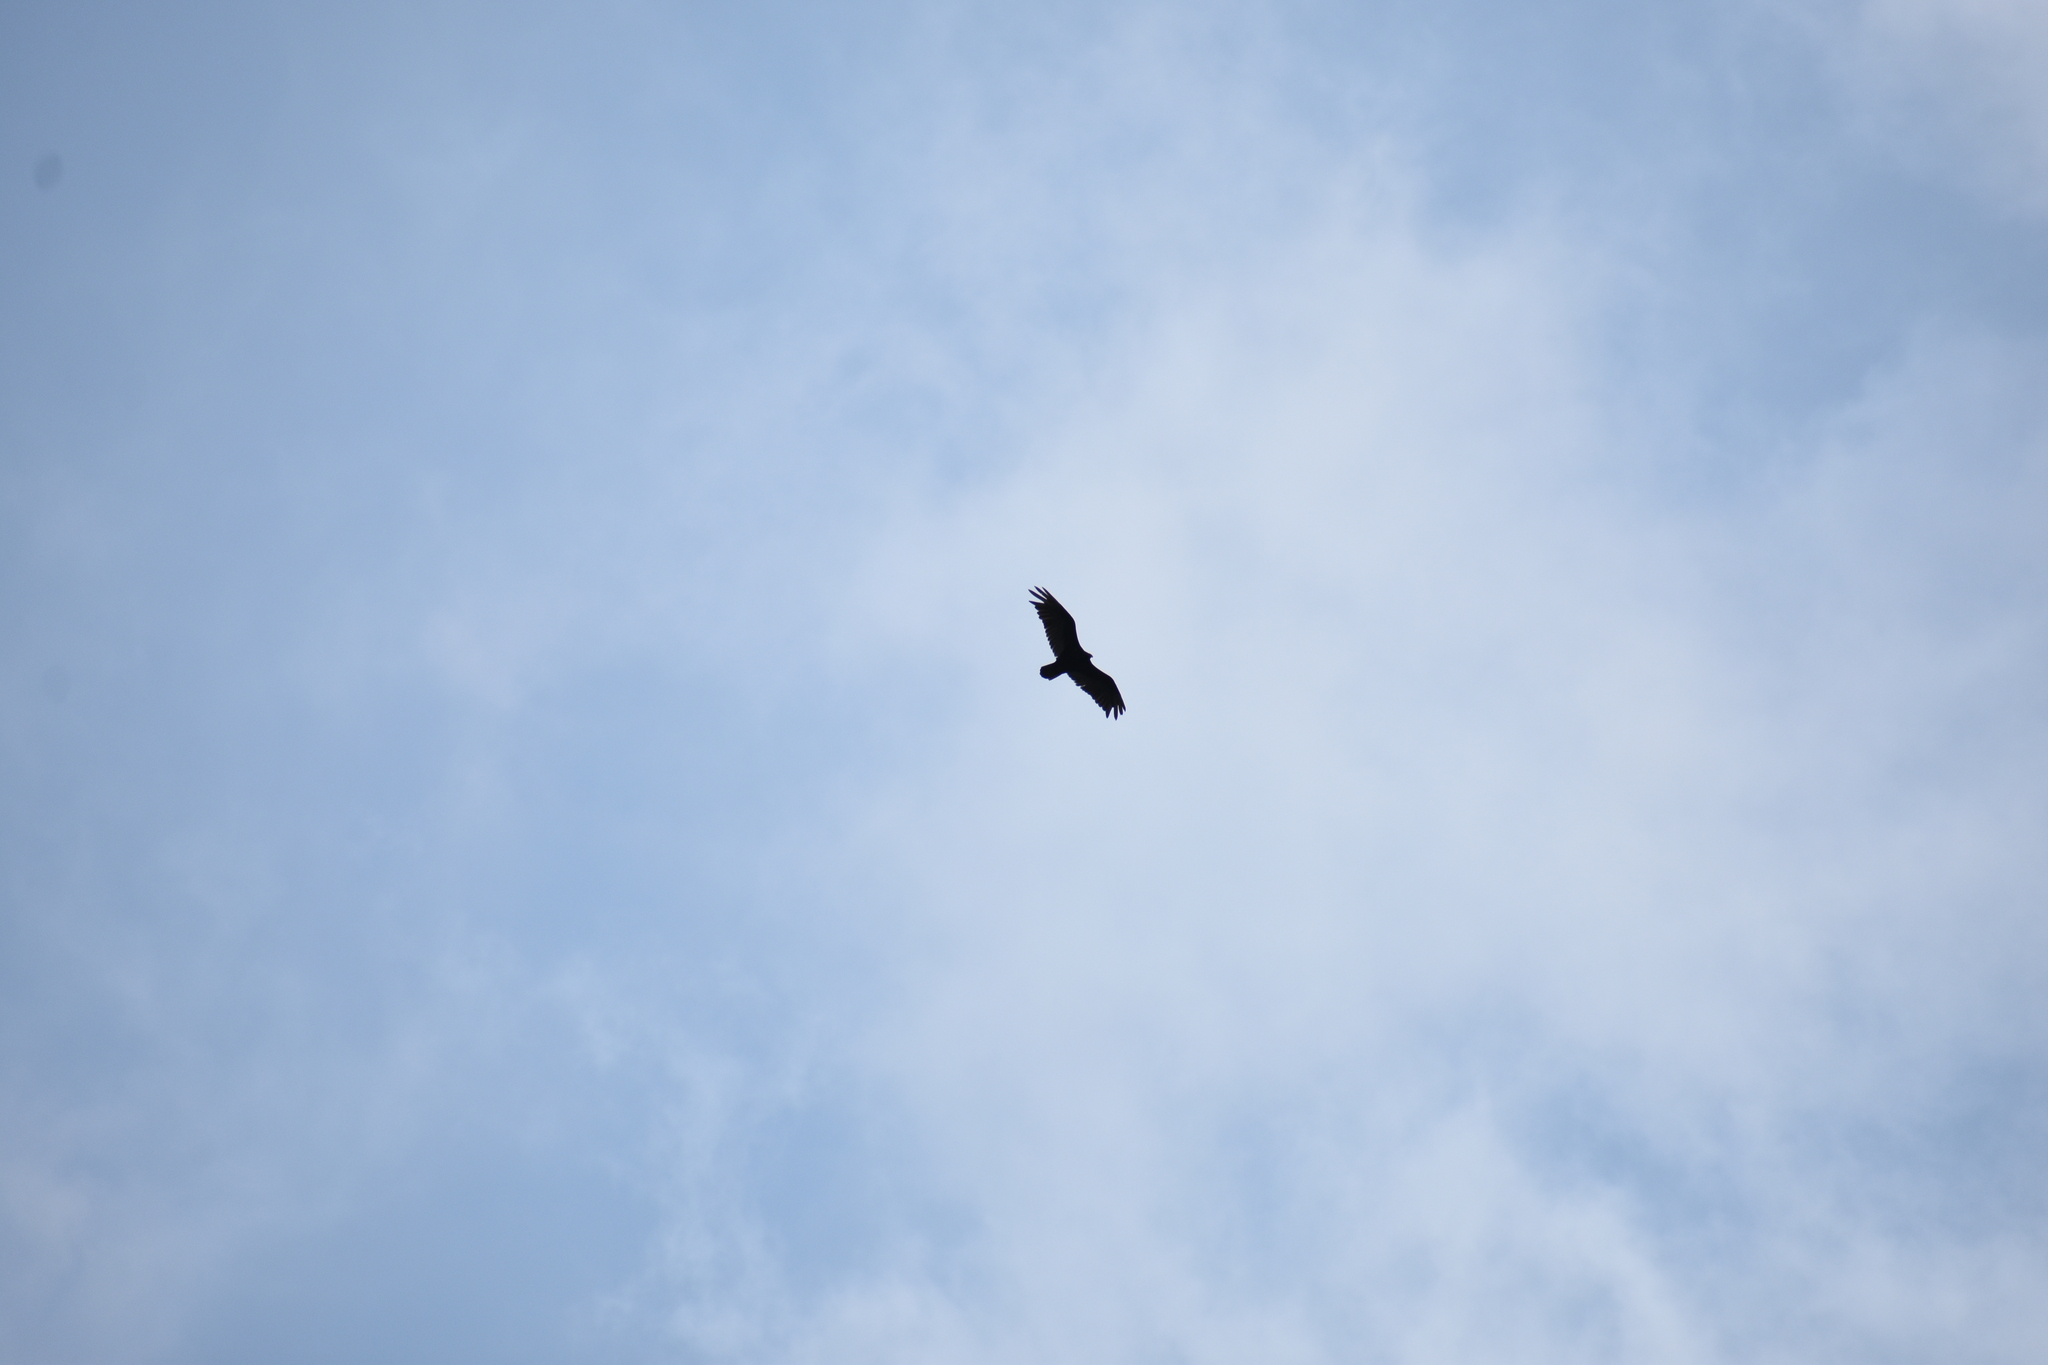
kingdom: Animalia
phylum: Chordata
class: Aves
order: Accipitriformes
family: Cathartidae
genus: Cathartes
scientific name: Cathartes aura
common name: Turkey vulture
